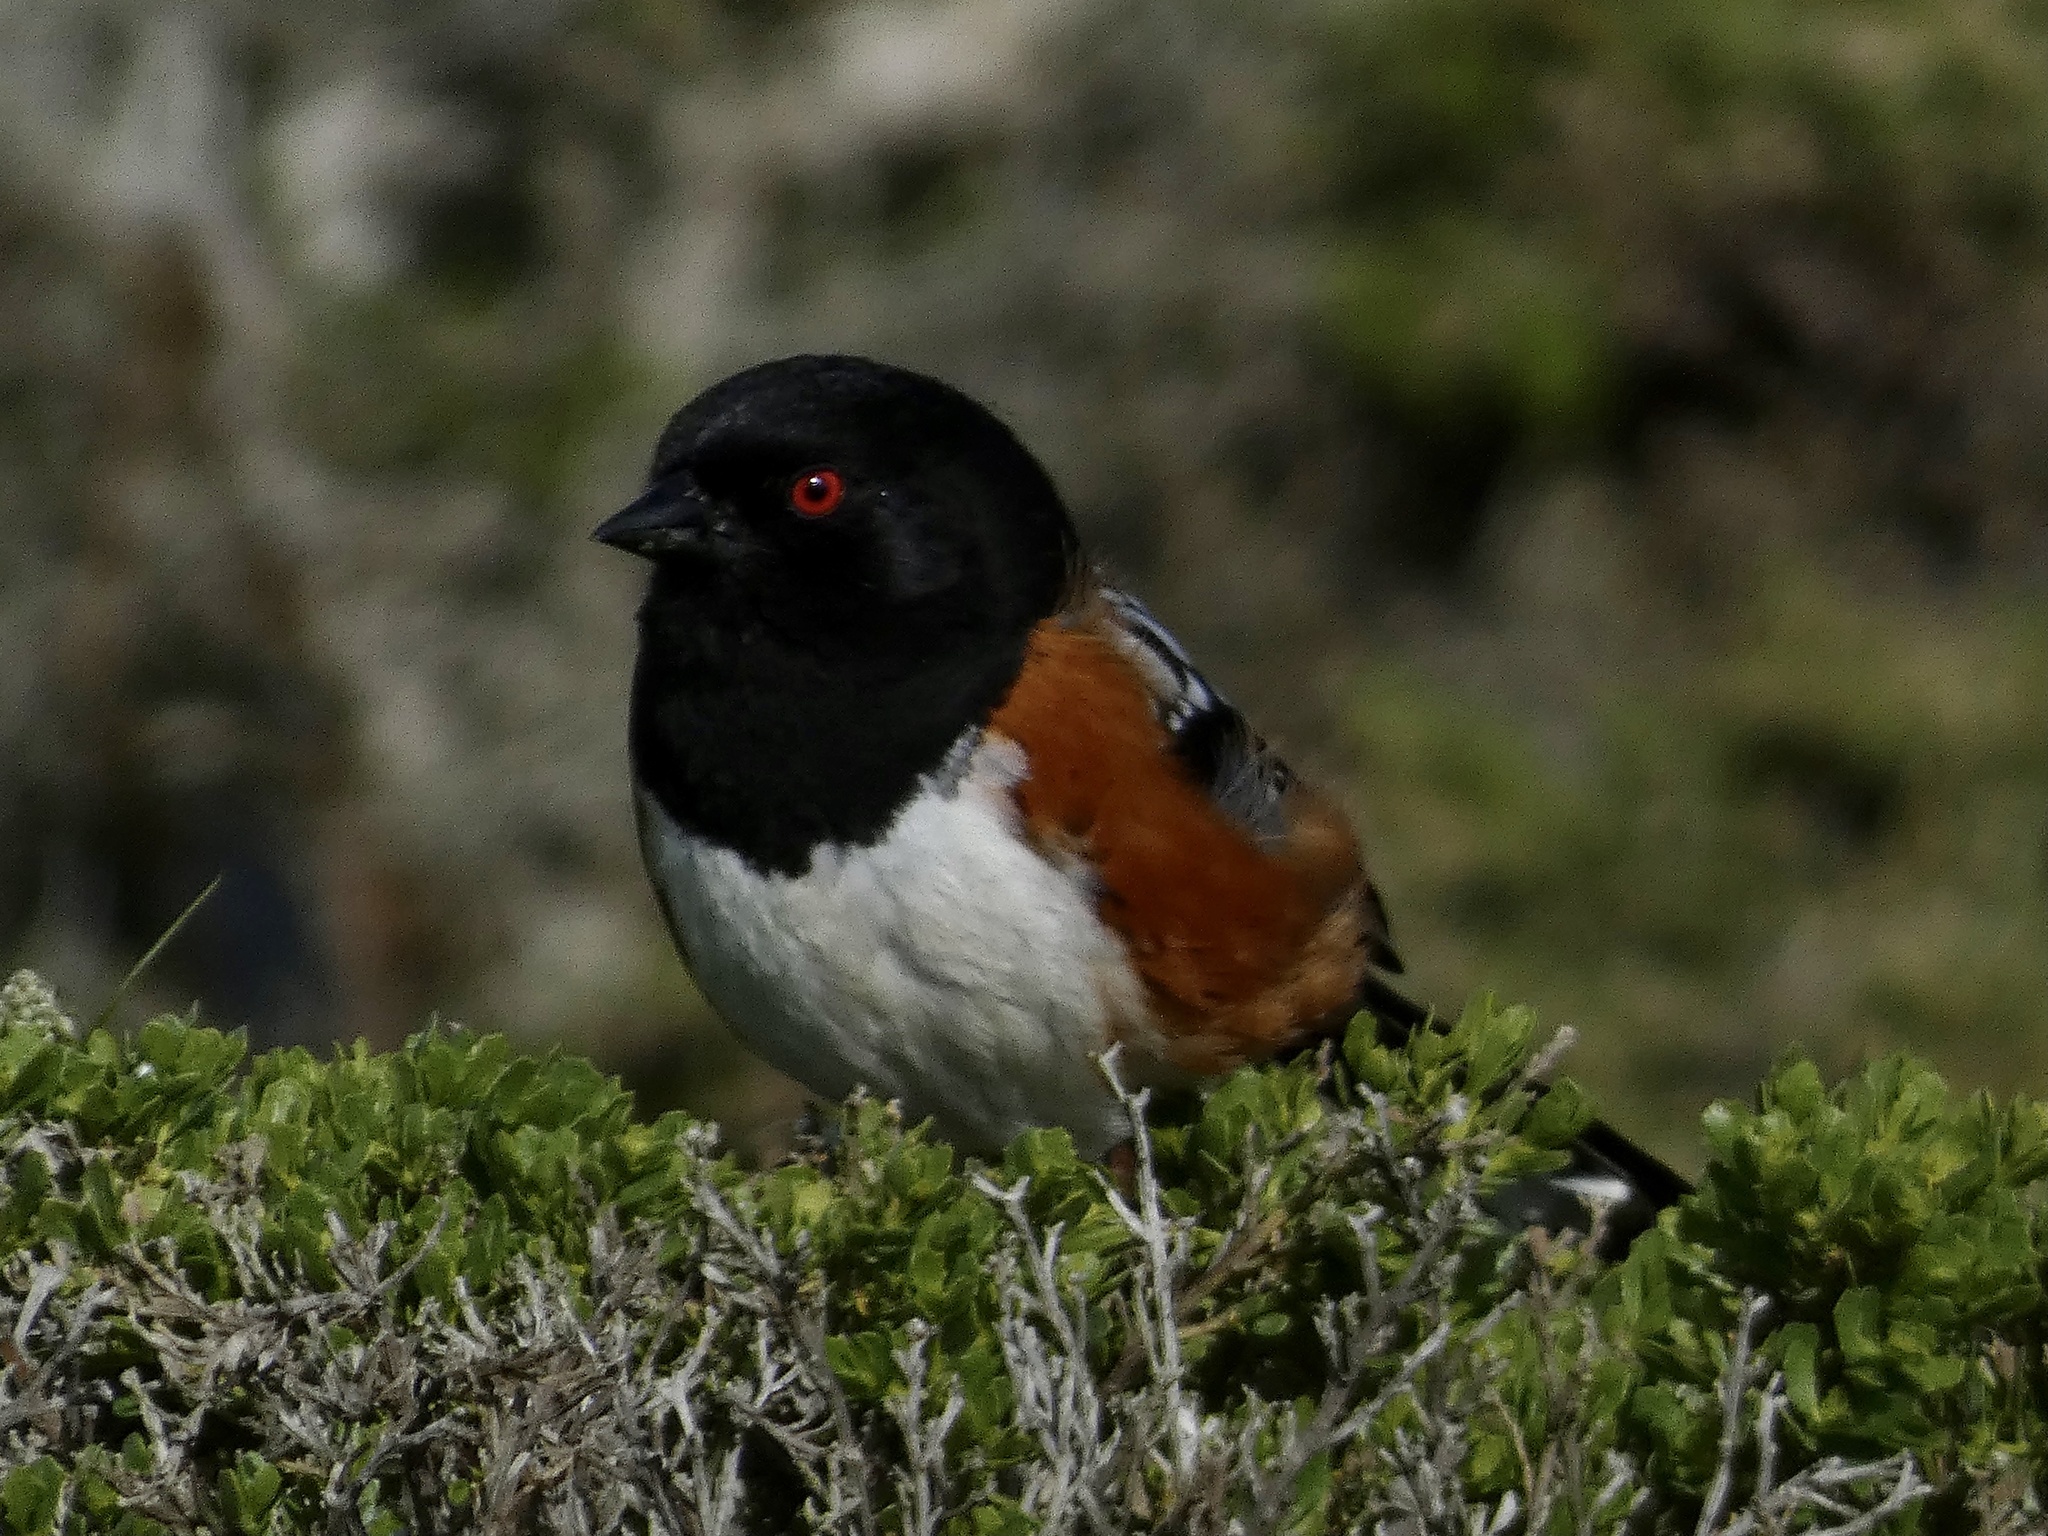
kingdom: Animalia
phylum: Chordata
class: Aves
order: Passeriformes
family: Passerellidae
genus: Pipilo
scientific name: Pipilo maculatus
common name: Spotted towhee
